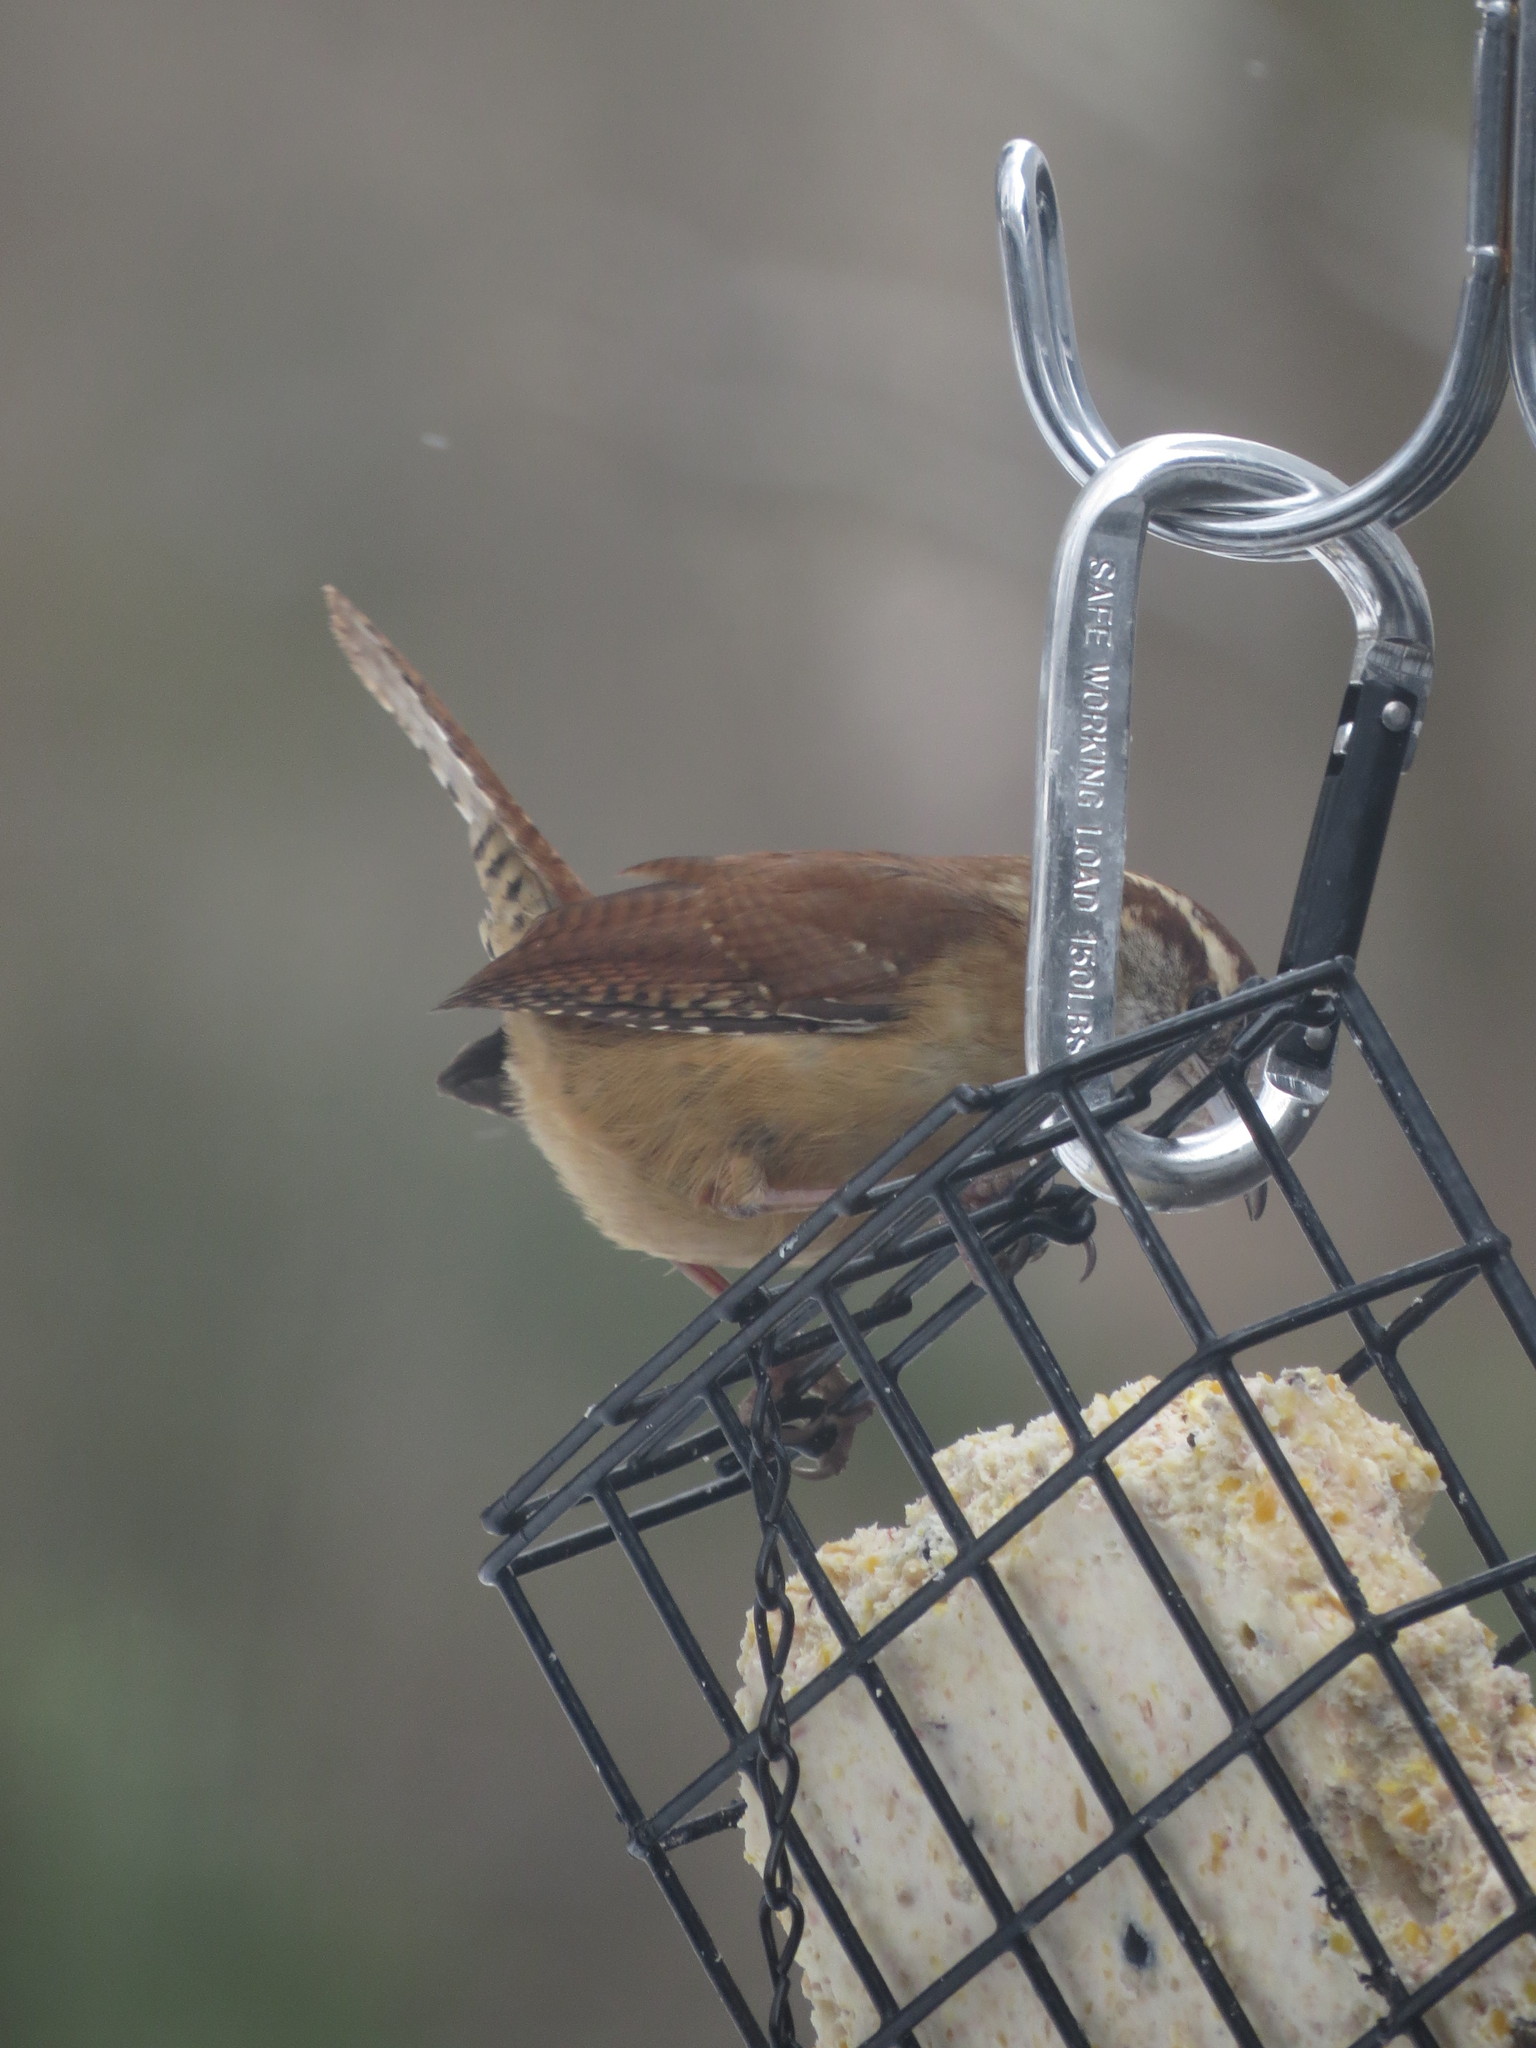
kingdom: Animalia
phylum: Chordata
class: Aves
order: Passeriformes
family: Troglodytidae
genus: Thryothorus
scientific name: Thryothorus ludovicianus
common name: Carolina wren
